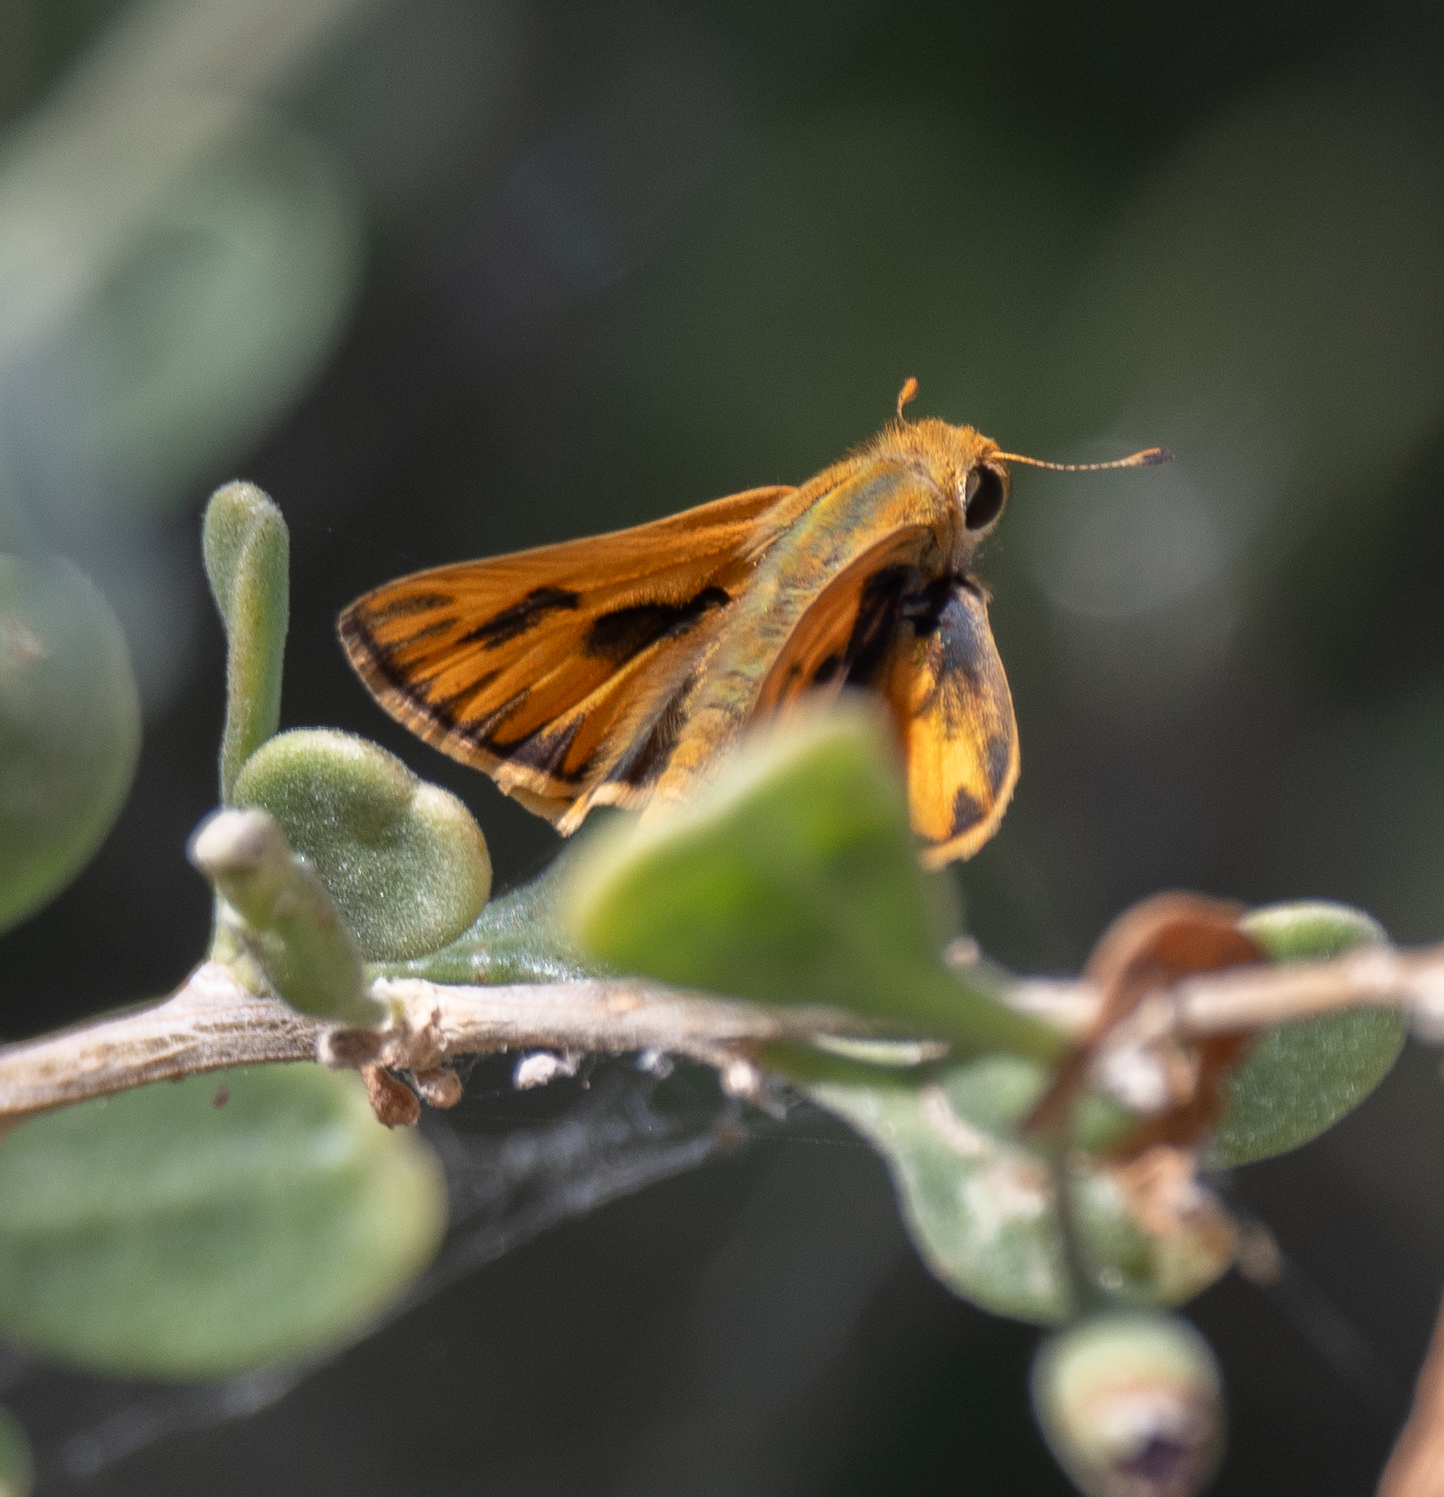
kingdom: Animalia
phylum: Arthropoda
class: Insecta
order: Lepidoptera
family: Hesperiidae
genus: Hylephila
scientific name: Hylephila phyleus
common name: Fiery skipper
